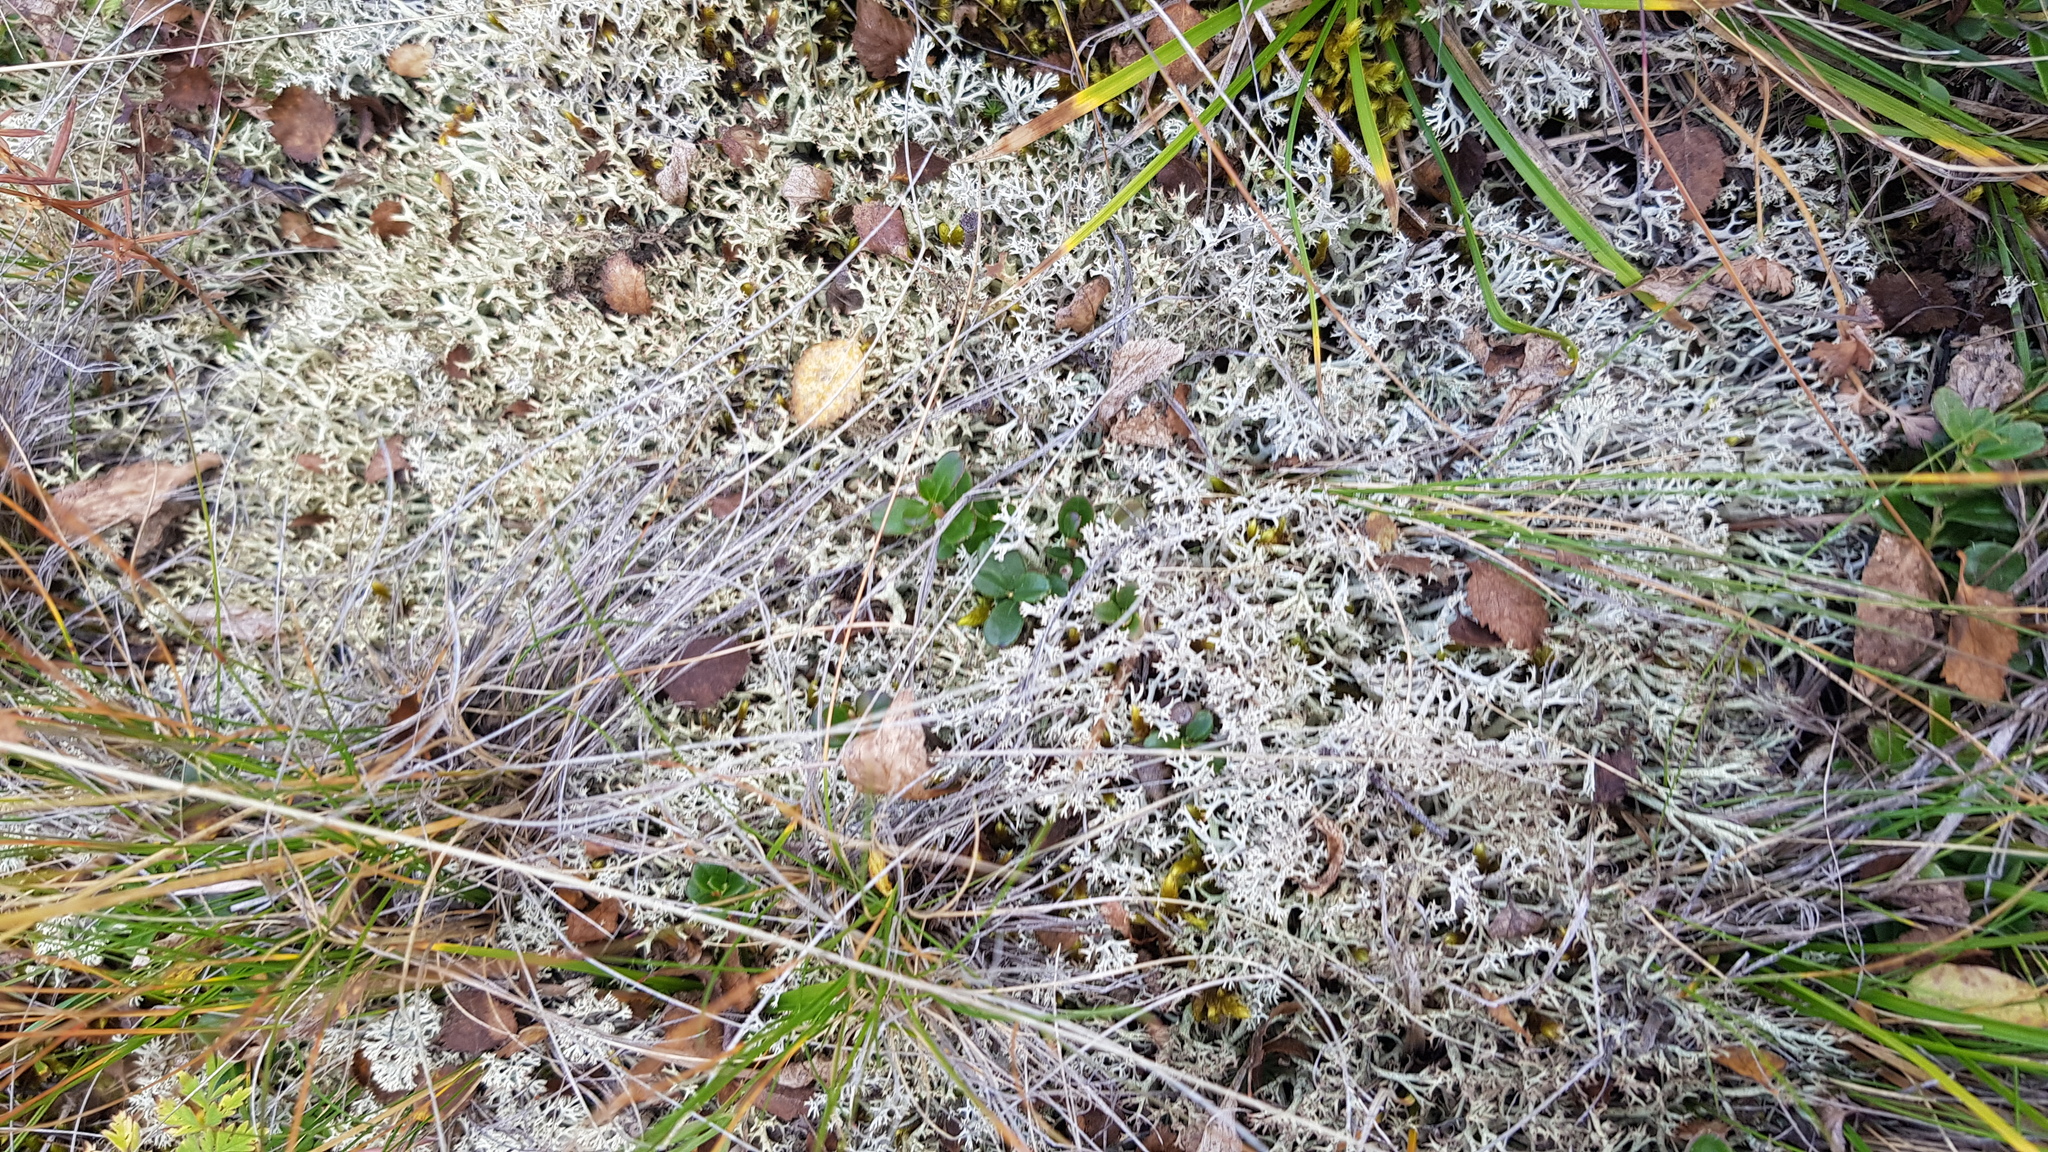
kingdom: Fungi
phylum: Ascomycota
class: Lecanoromycetes
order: Lecanorales
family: Cladoniaceae
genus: Cladonia
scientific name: Cladonia rangiformis
